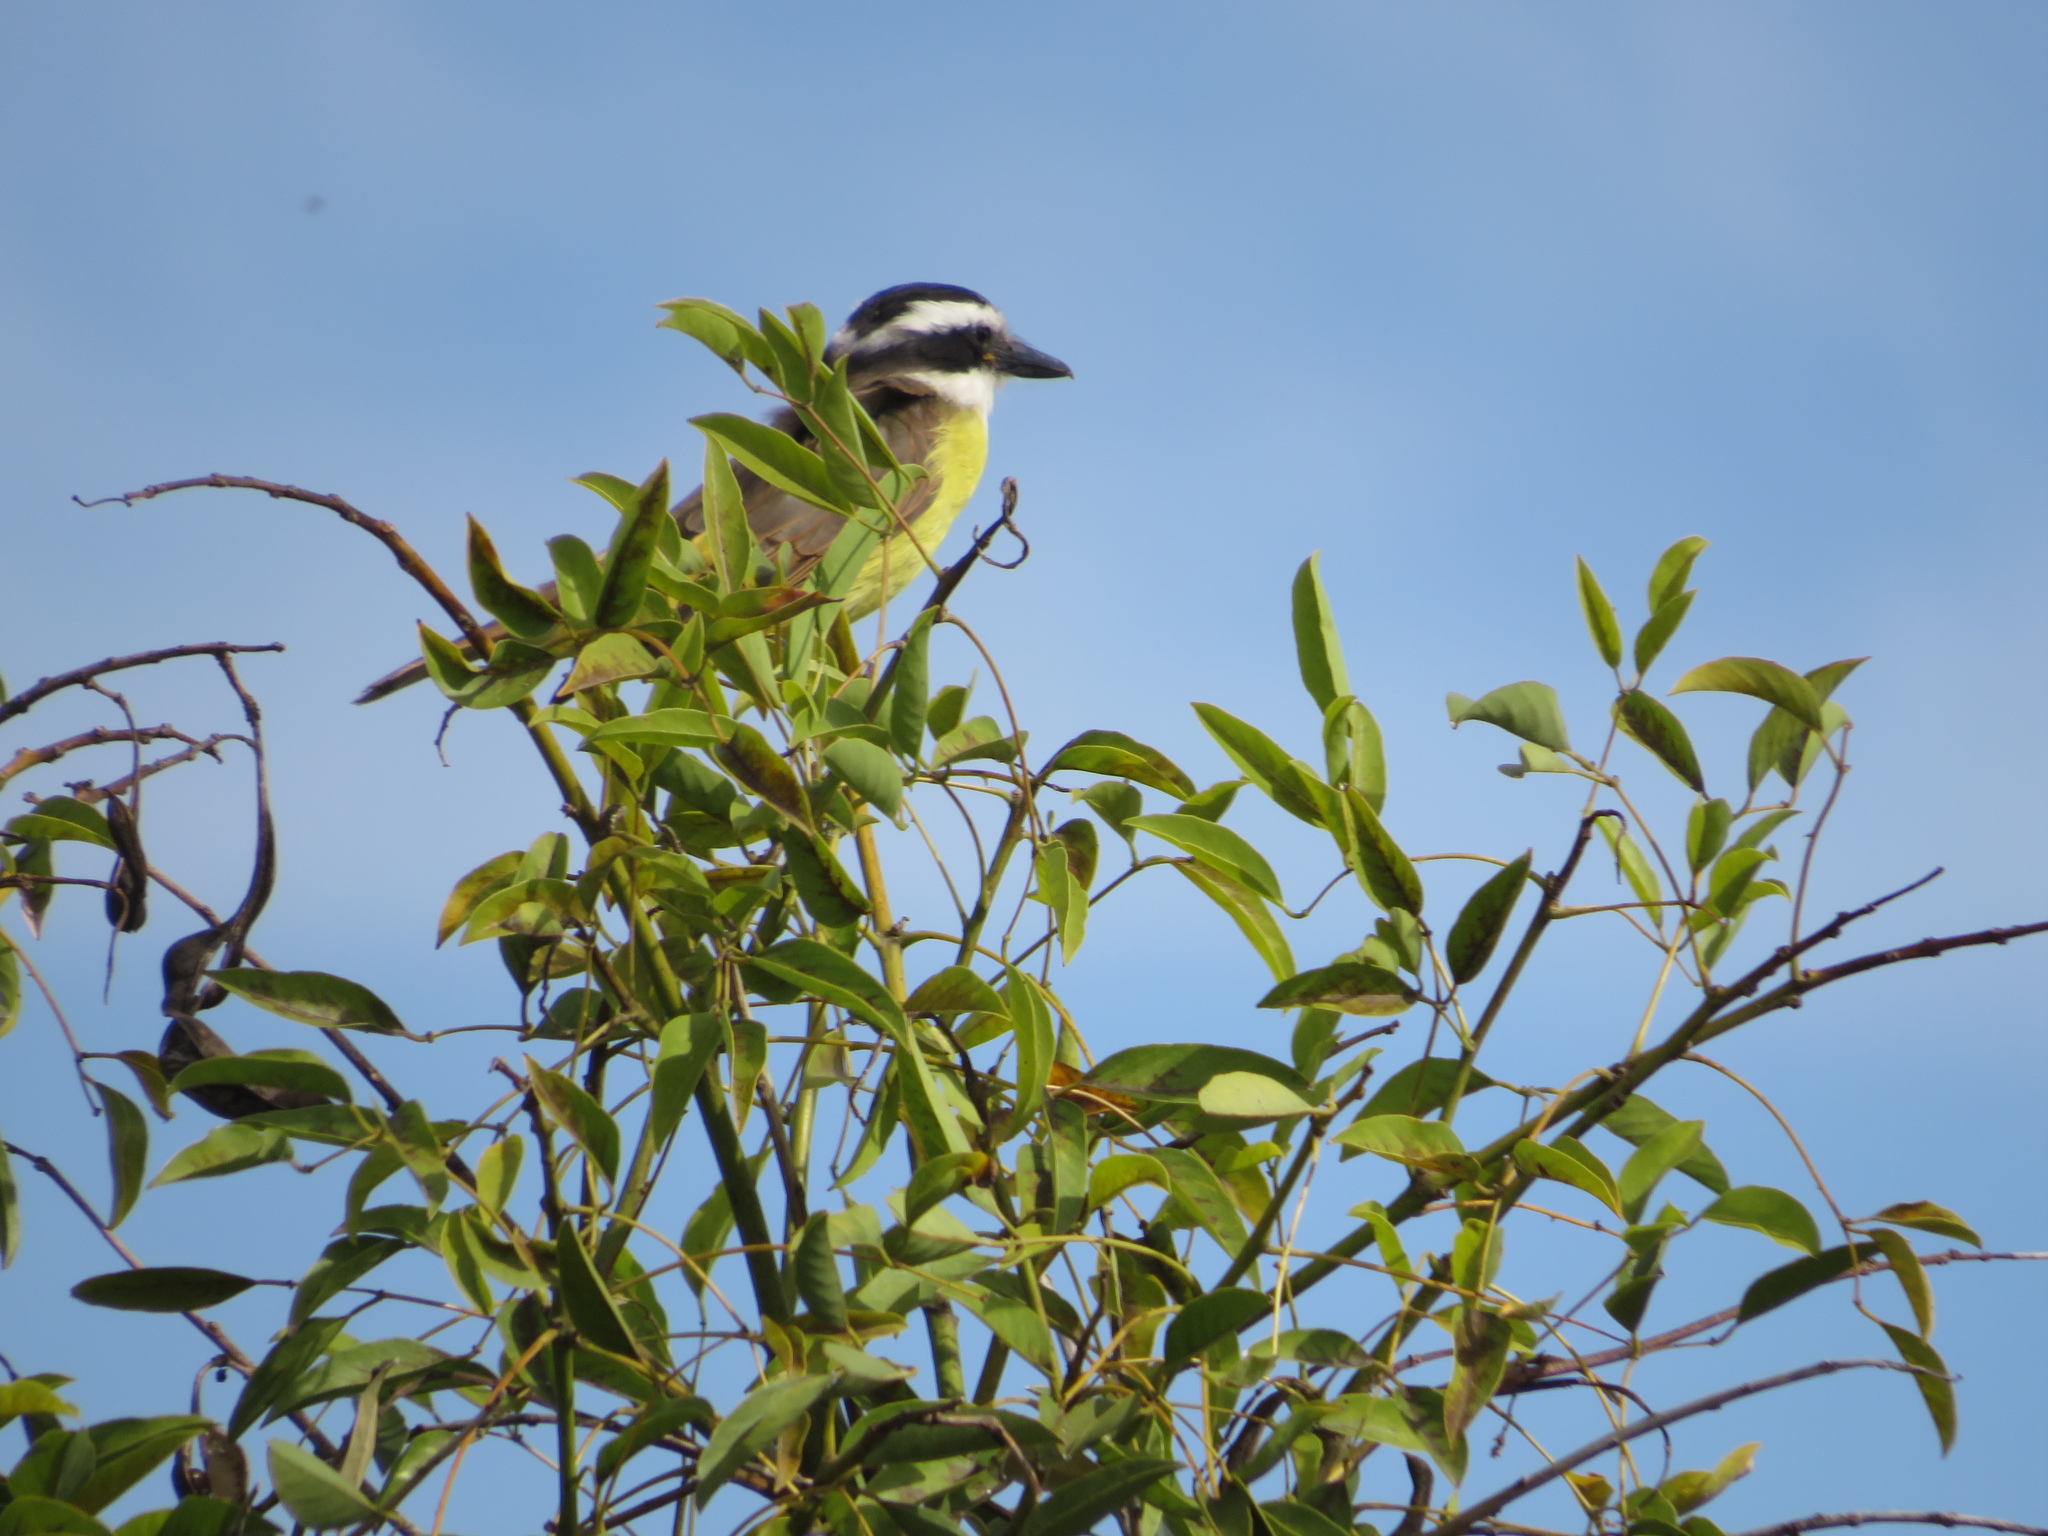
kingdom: Animalia
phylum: Chordata
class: Aves
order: Passeriformes
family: Tyrannidae
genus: Pitangus
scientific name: Pitangus sulphuratus
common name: Great kiskadee
